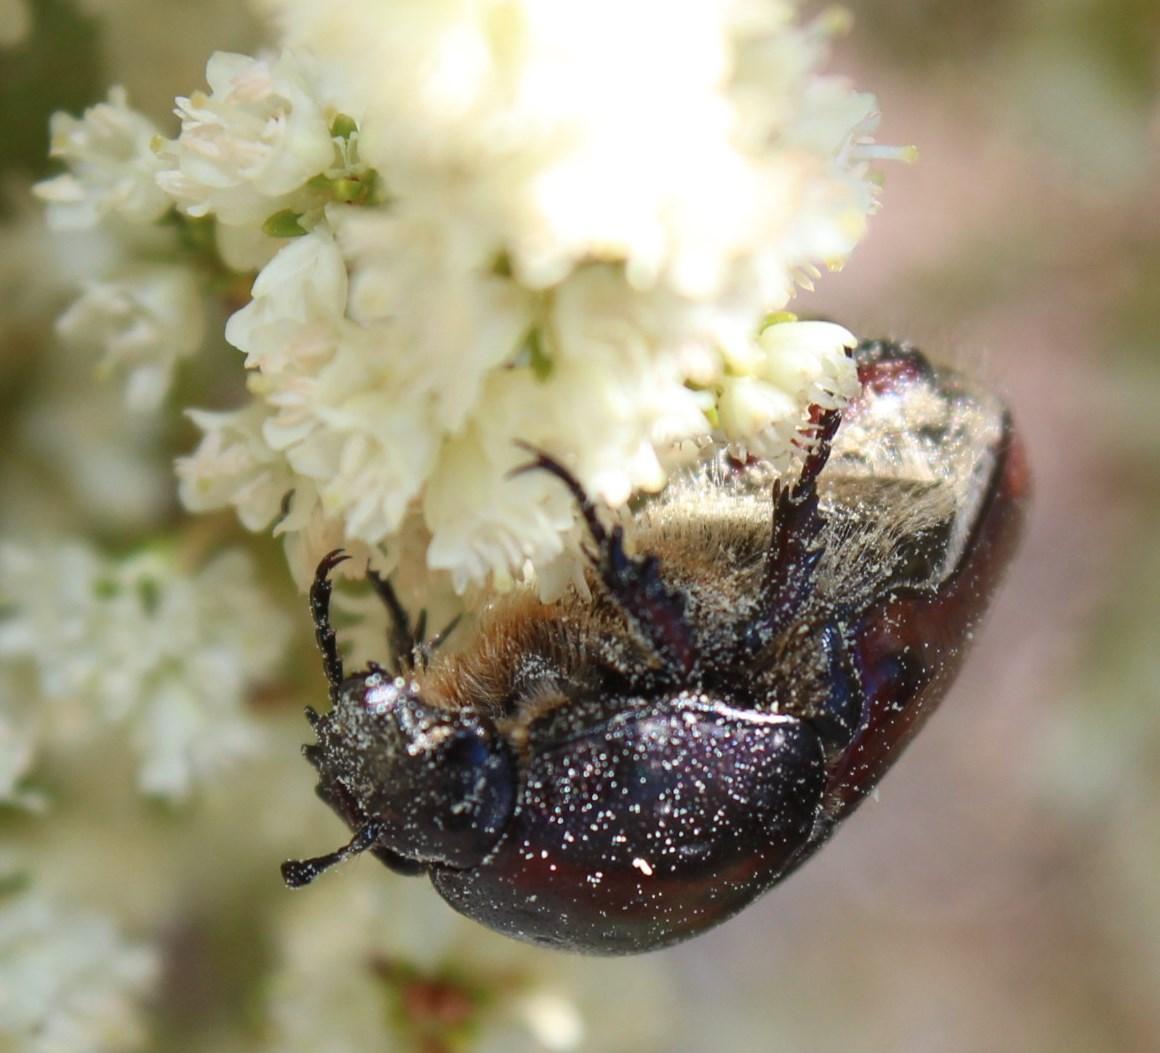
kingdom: Animalia
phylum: Arthropoda
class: Insecta
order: Coleoptera
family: Scarabaeidae
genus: Trichostetha
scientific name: Trichostetha capensis
